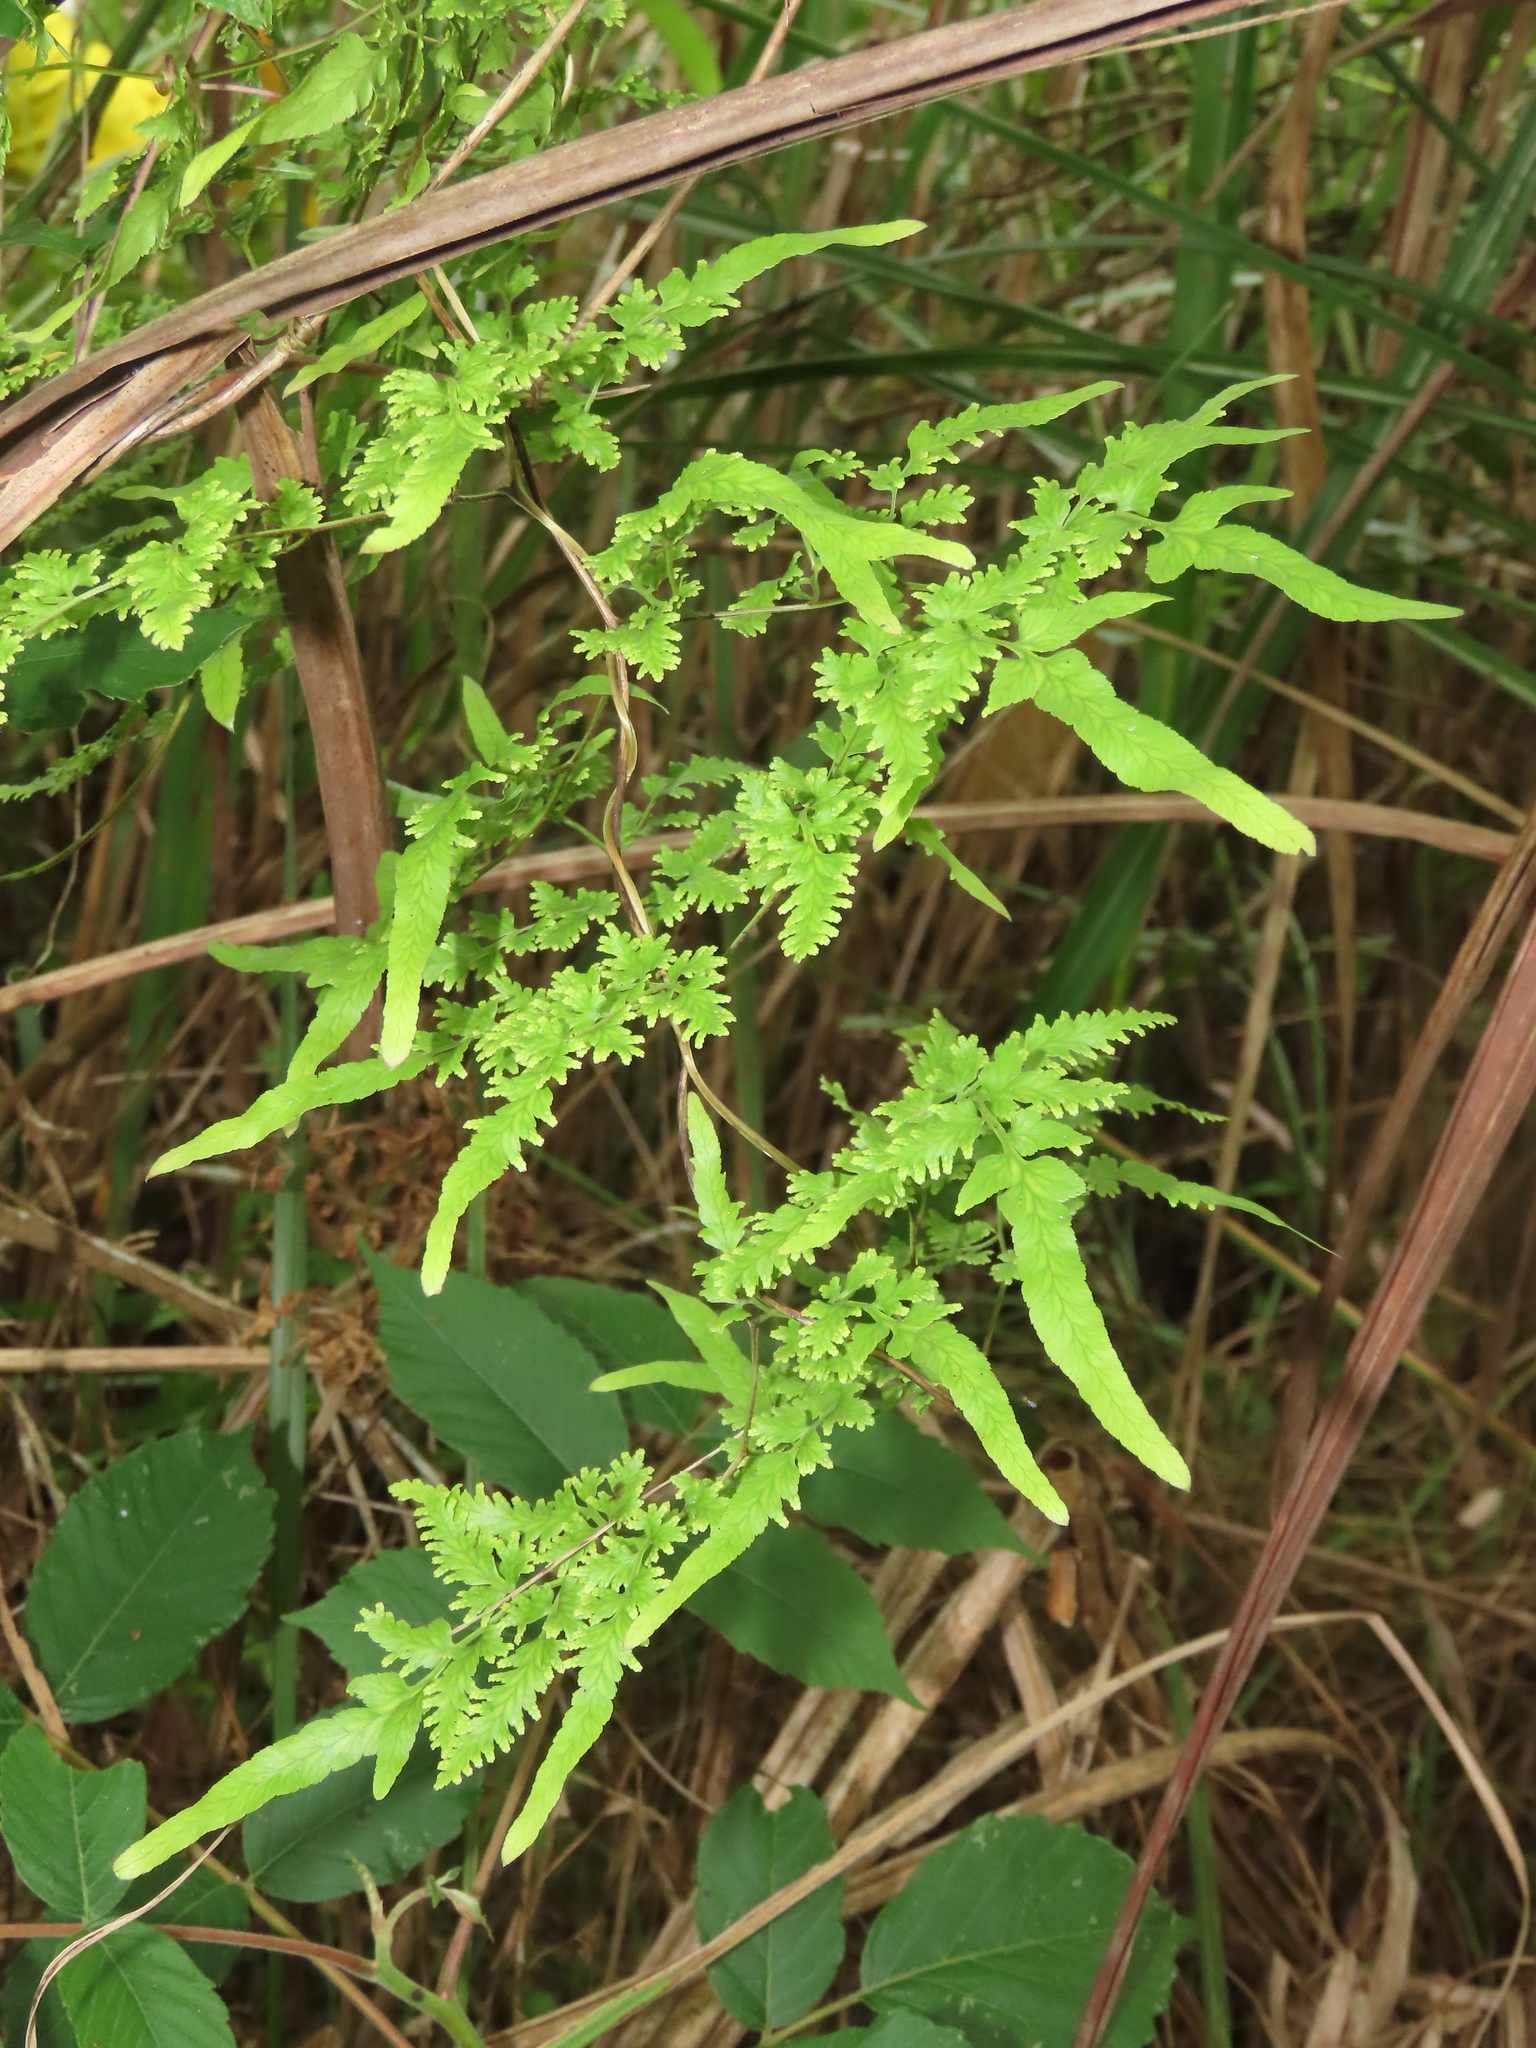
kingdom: Plantae
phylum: Tracheophyta
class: Polypodiopsida
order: Schizaeales
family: Lygodiaceae
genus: Lygodium
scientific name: Lygodium japonicum
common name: Japanese climbing fern
